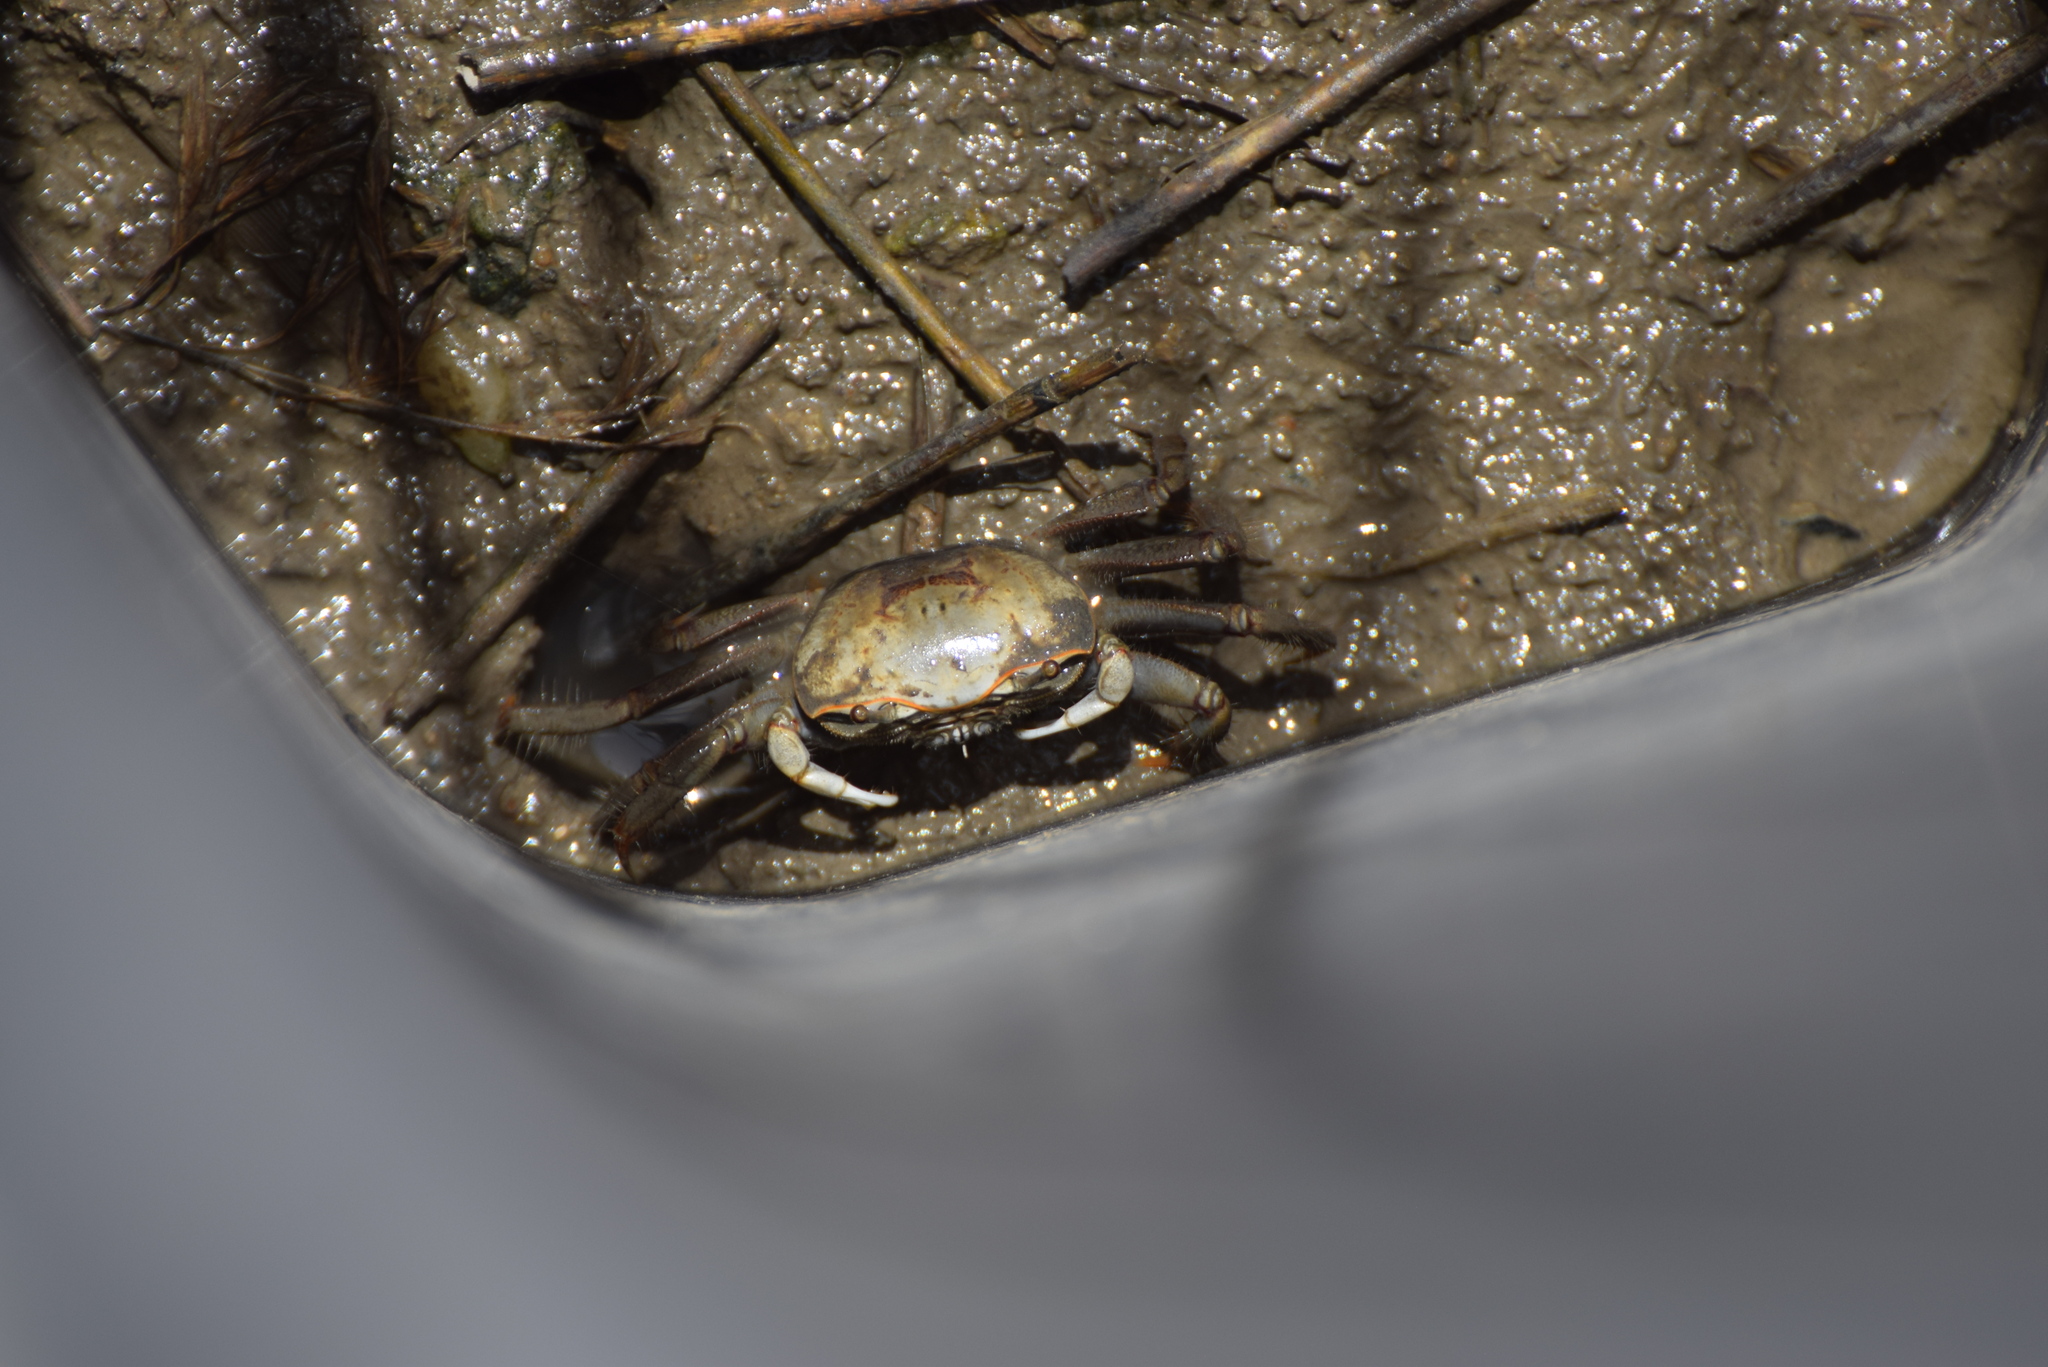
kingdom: Animalia
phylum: Arthropoda
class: Malacostraca
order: Decapoda
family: Ocypodidae
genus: Minuca
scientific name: Minuca minax
